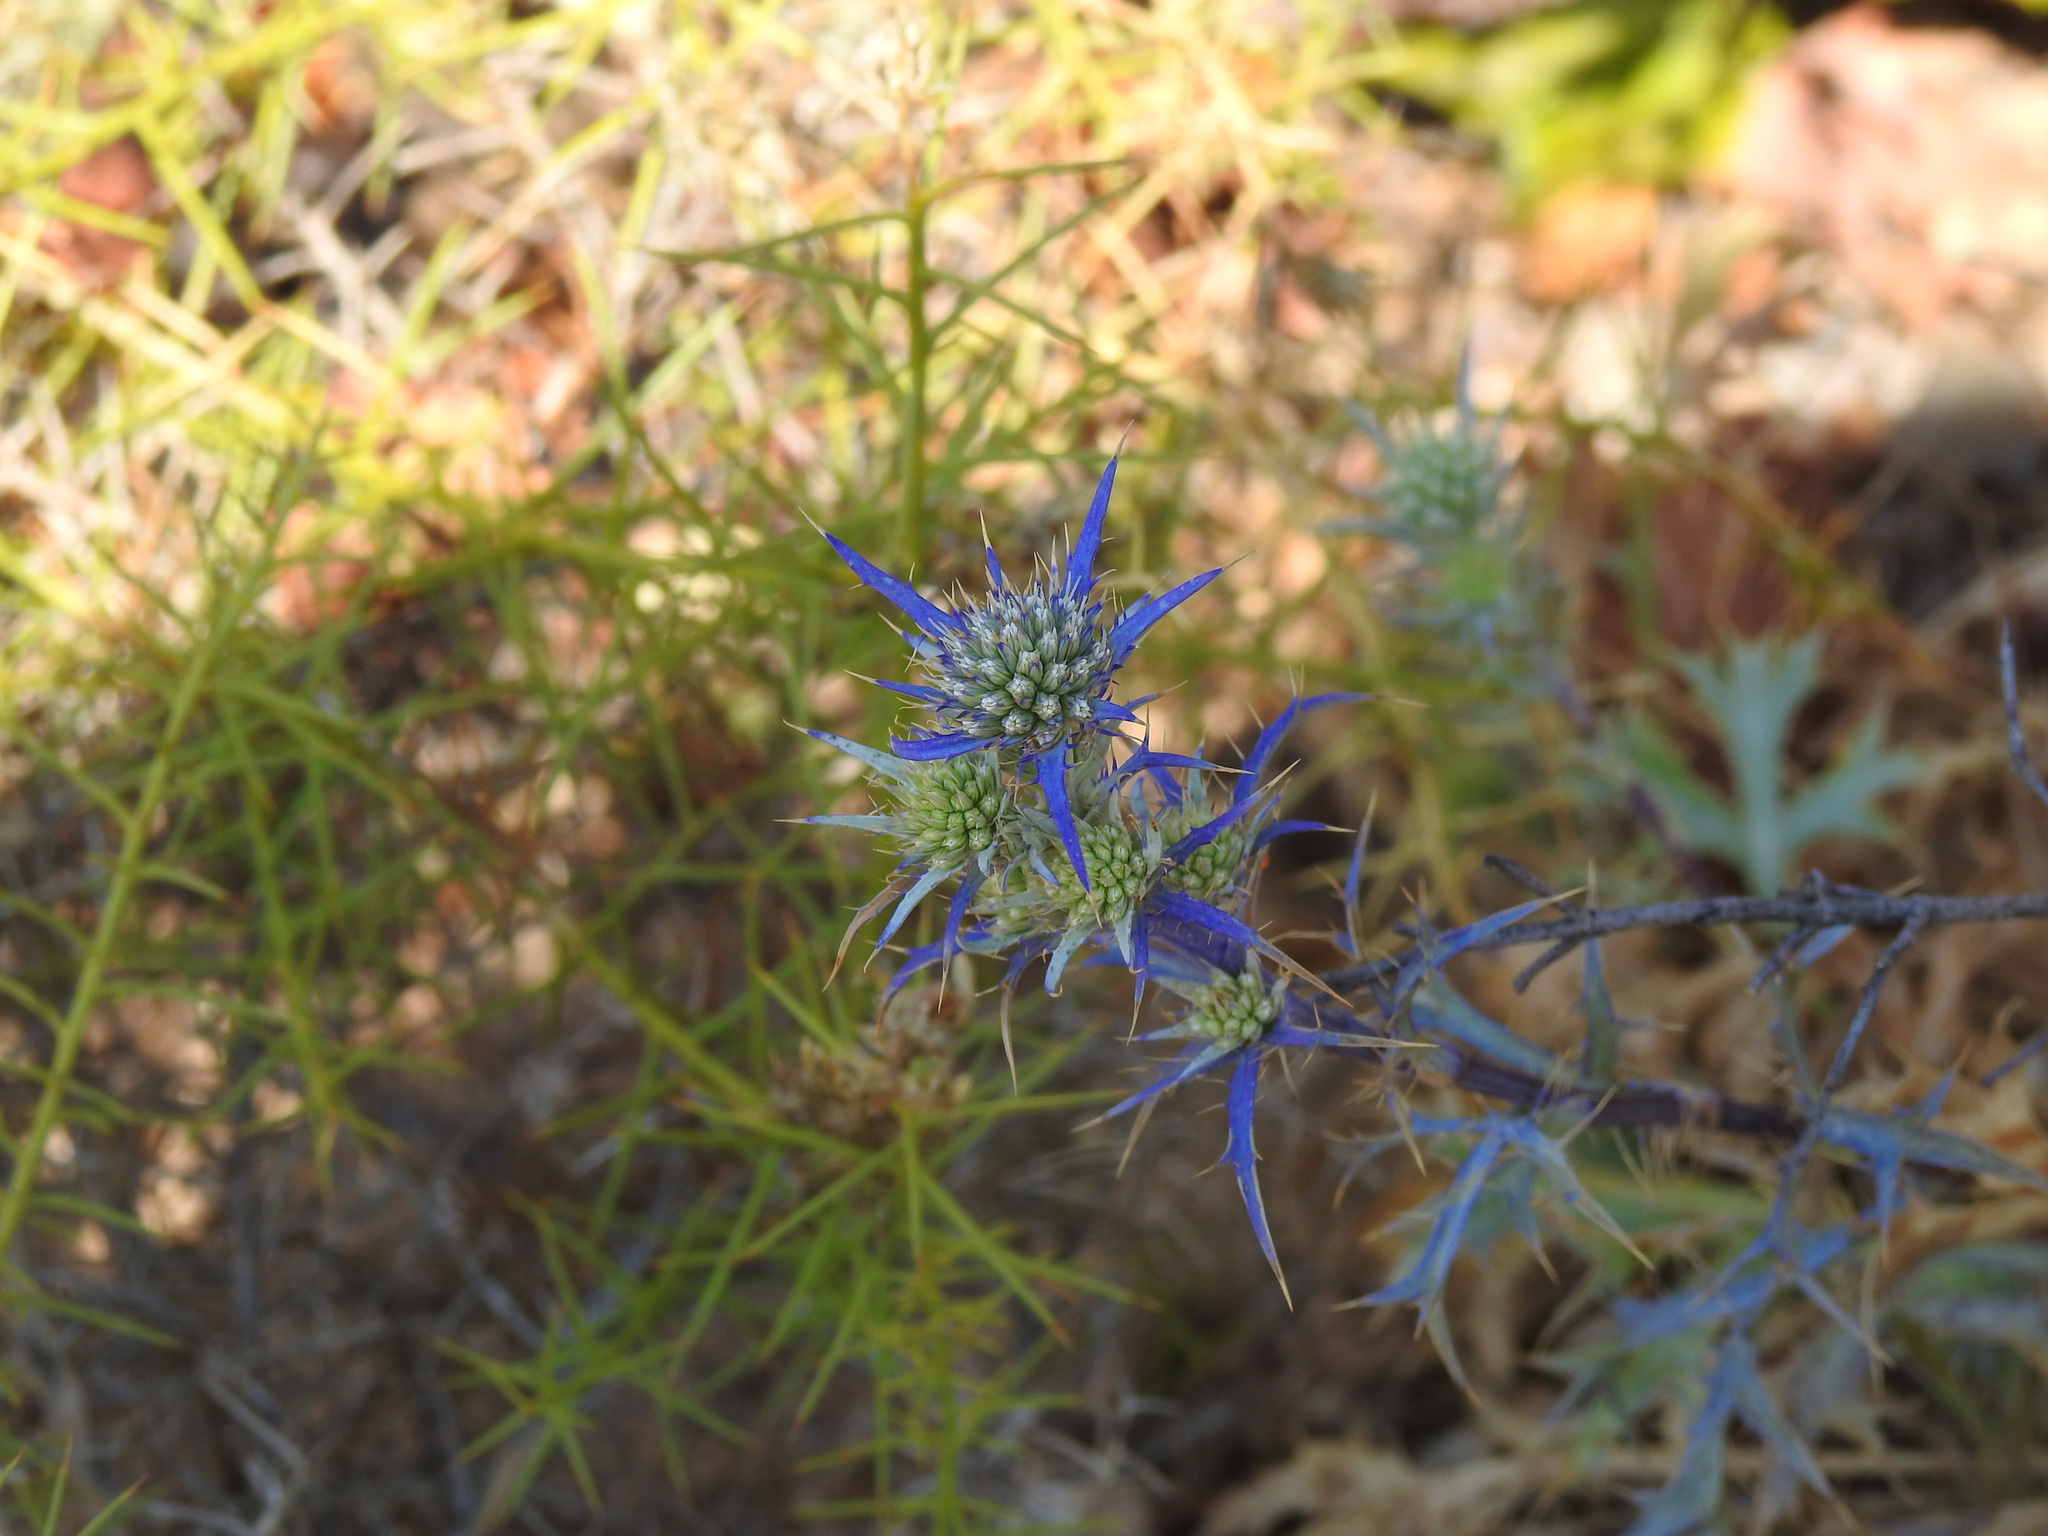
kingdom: Plantae
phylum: Tracheophyta
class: Magnoliopsida
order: Apiales
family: Apiaceae
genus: Eryngium
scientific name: Eryngium dilatatum
